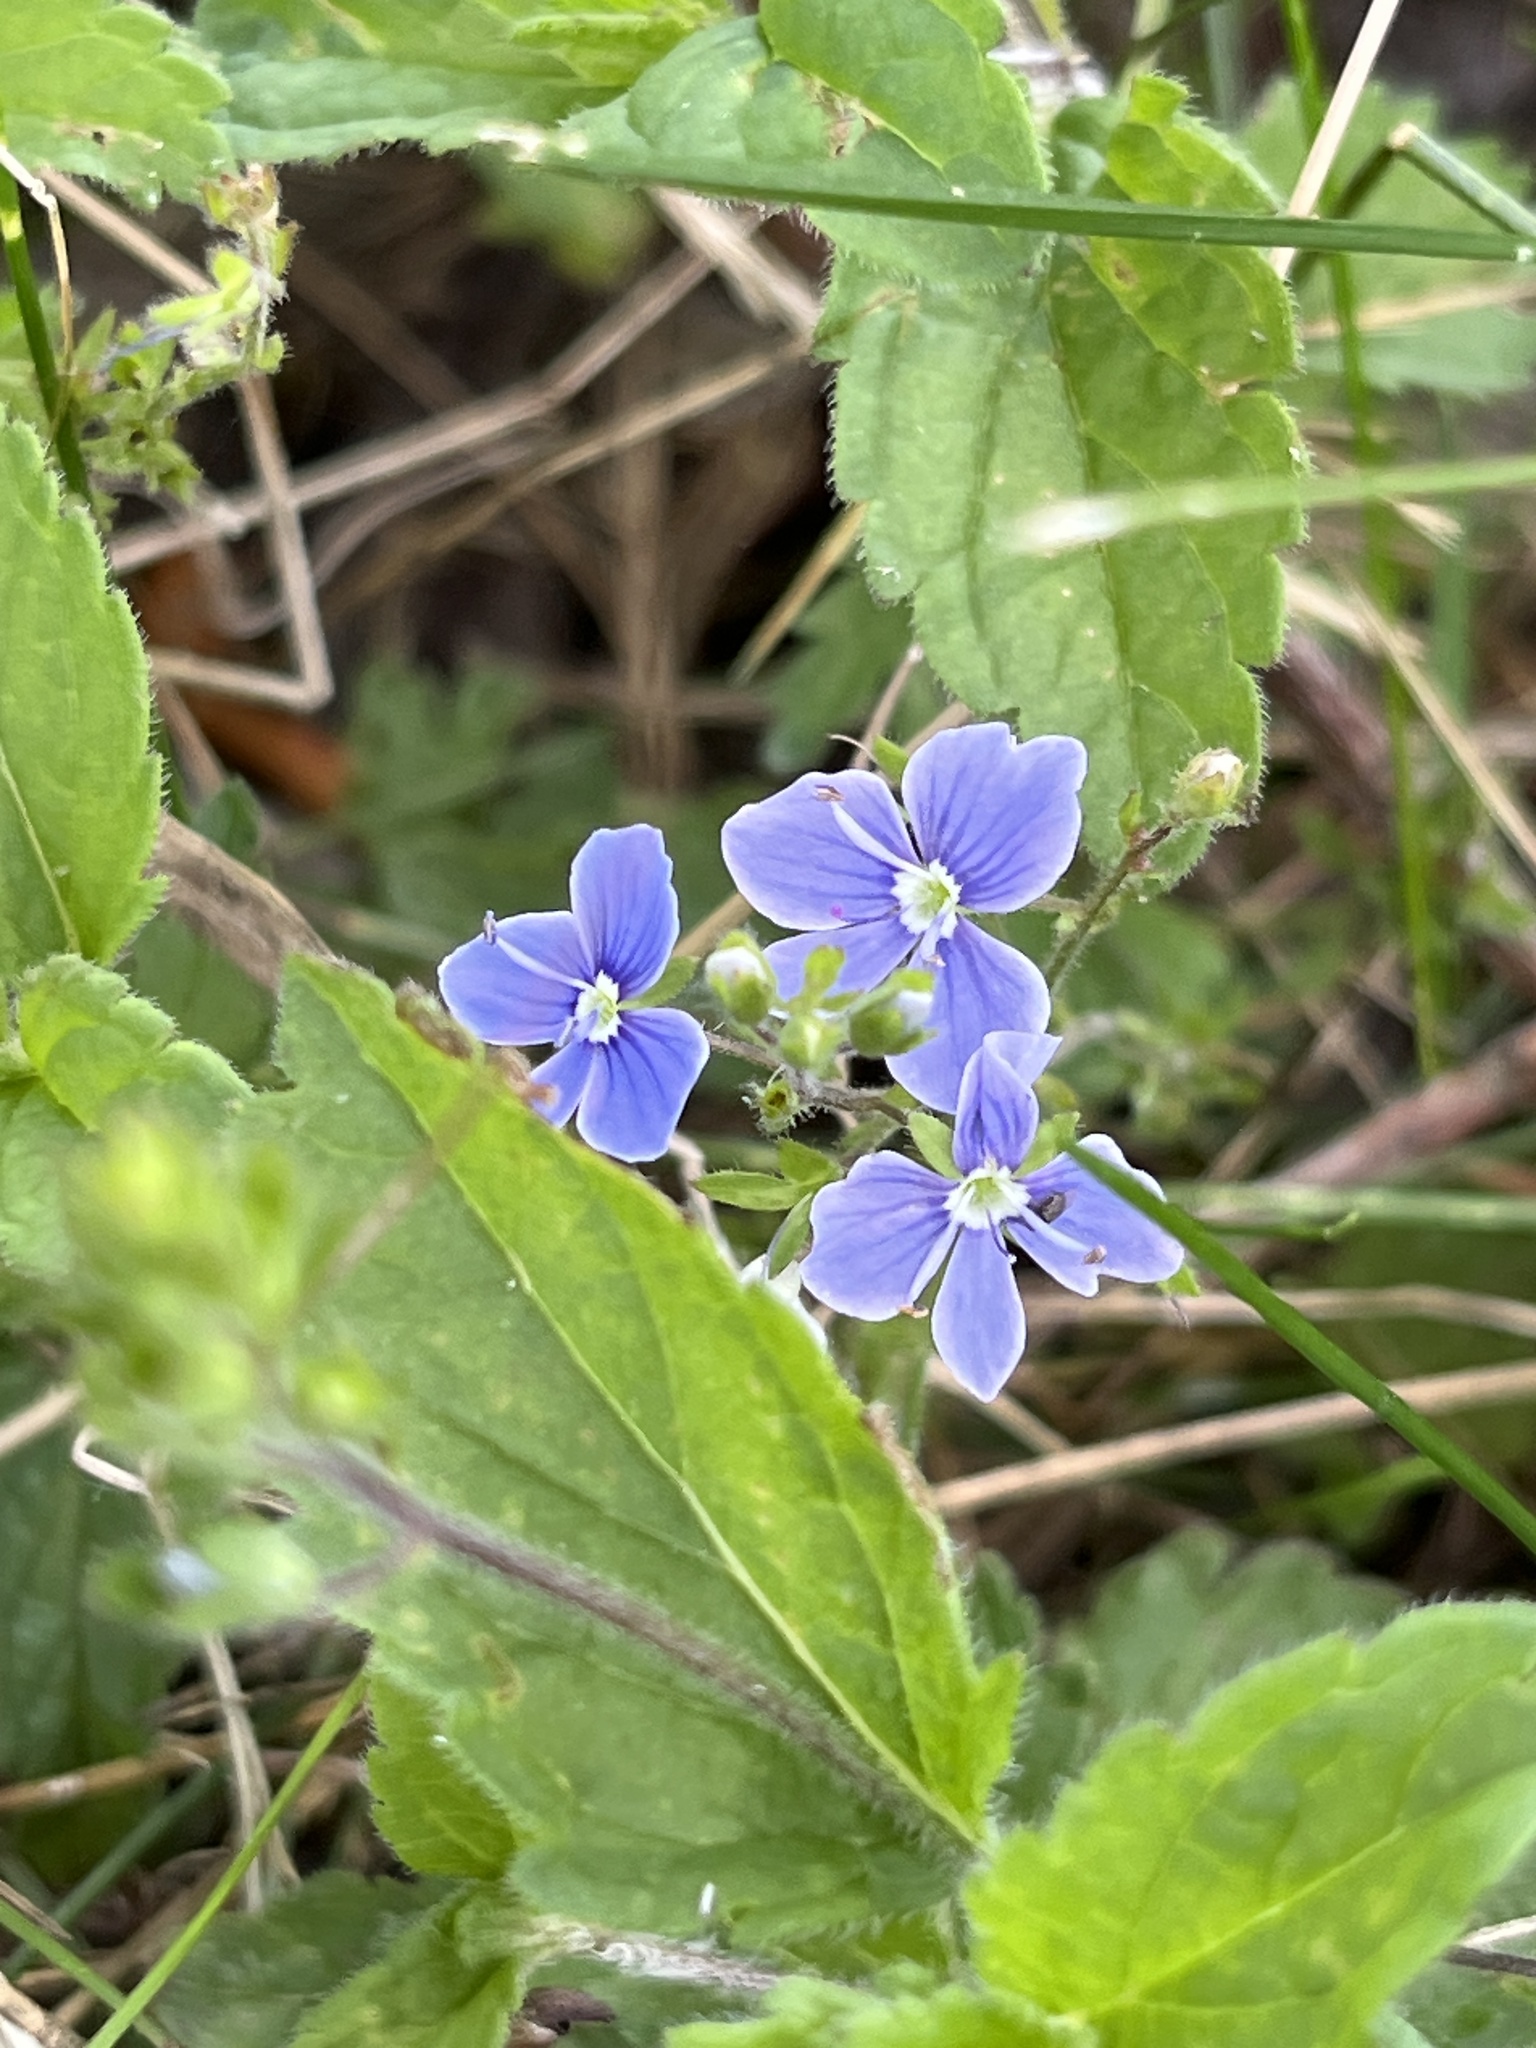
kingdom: Plantae
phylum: Tracheophyta
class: Magnoliopsida
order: Lamiales
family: Plantaginaceae
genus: Veronica
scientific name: Veronica chamaedrys
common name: Germander speedwell
